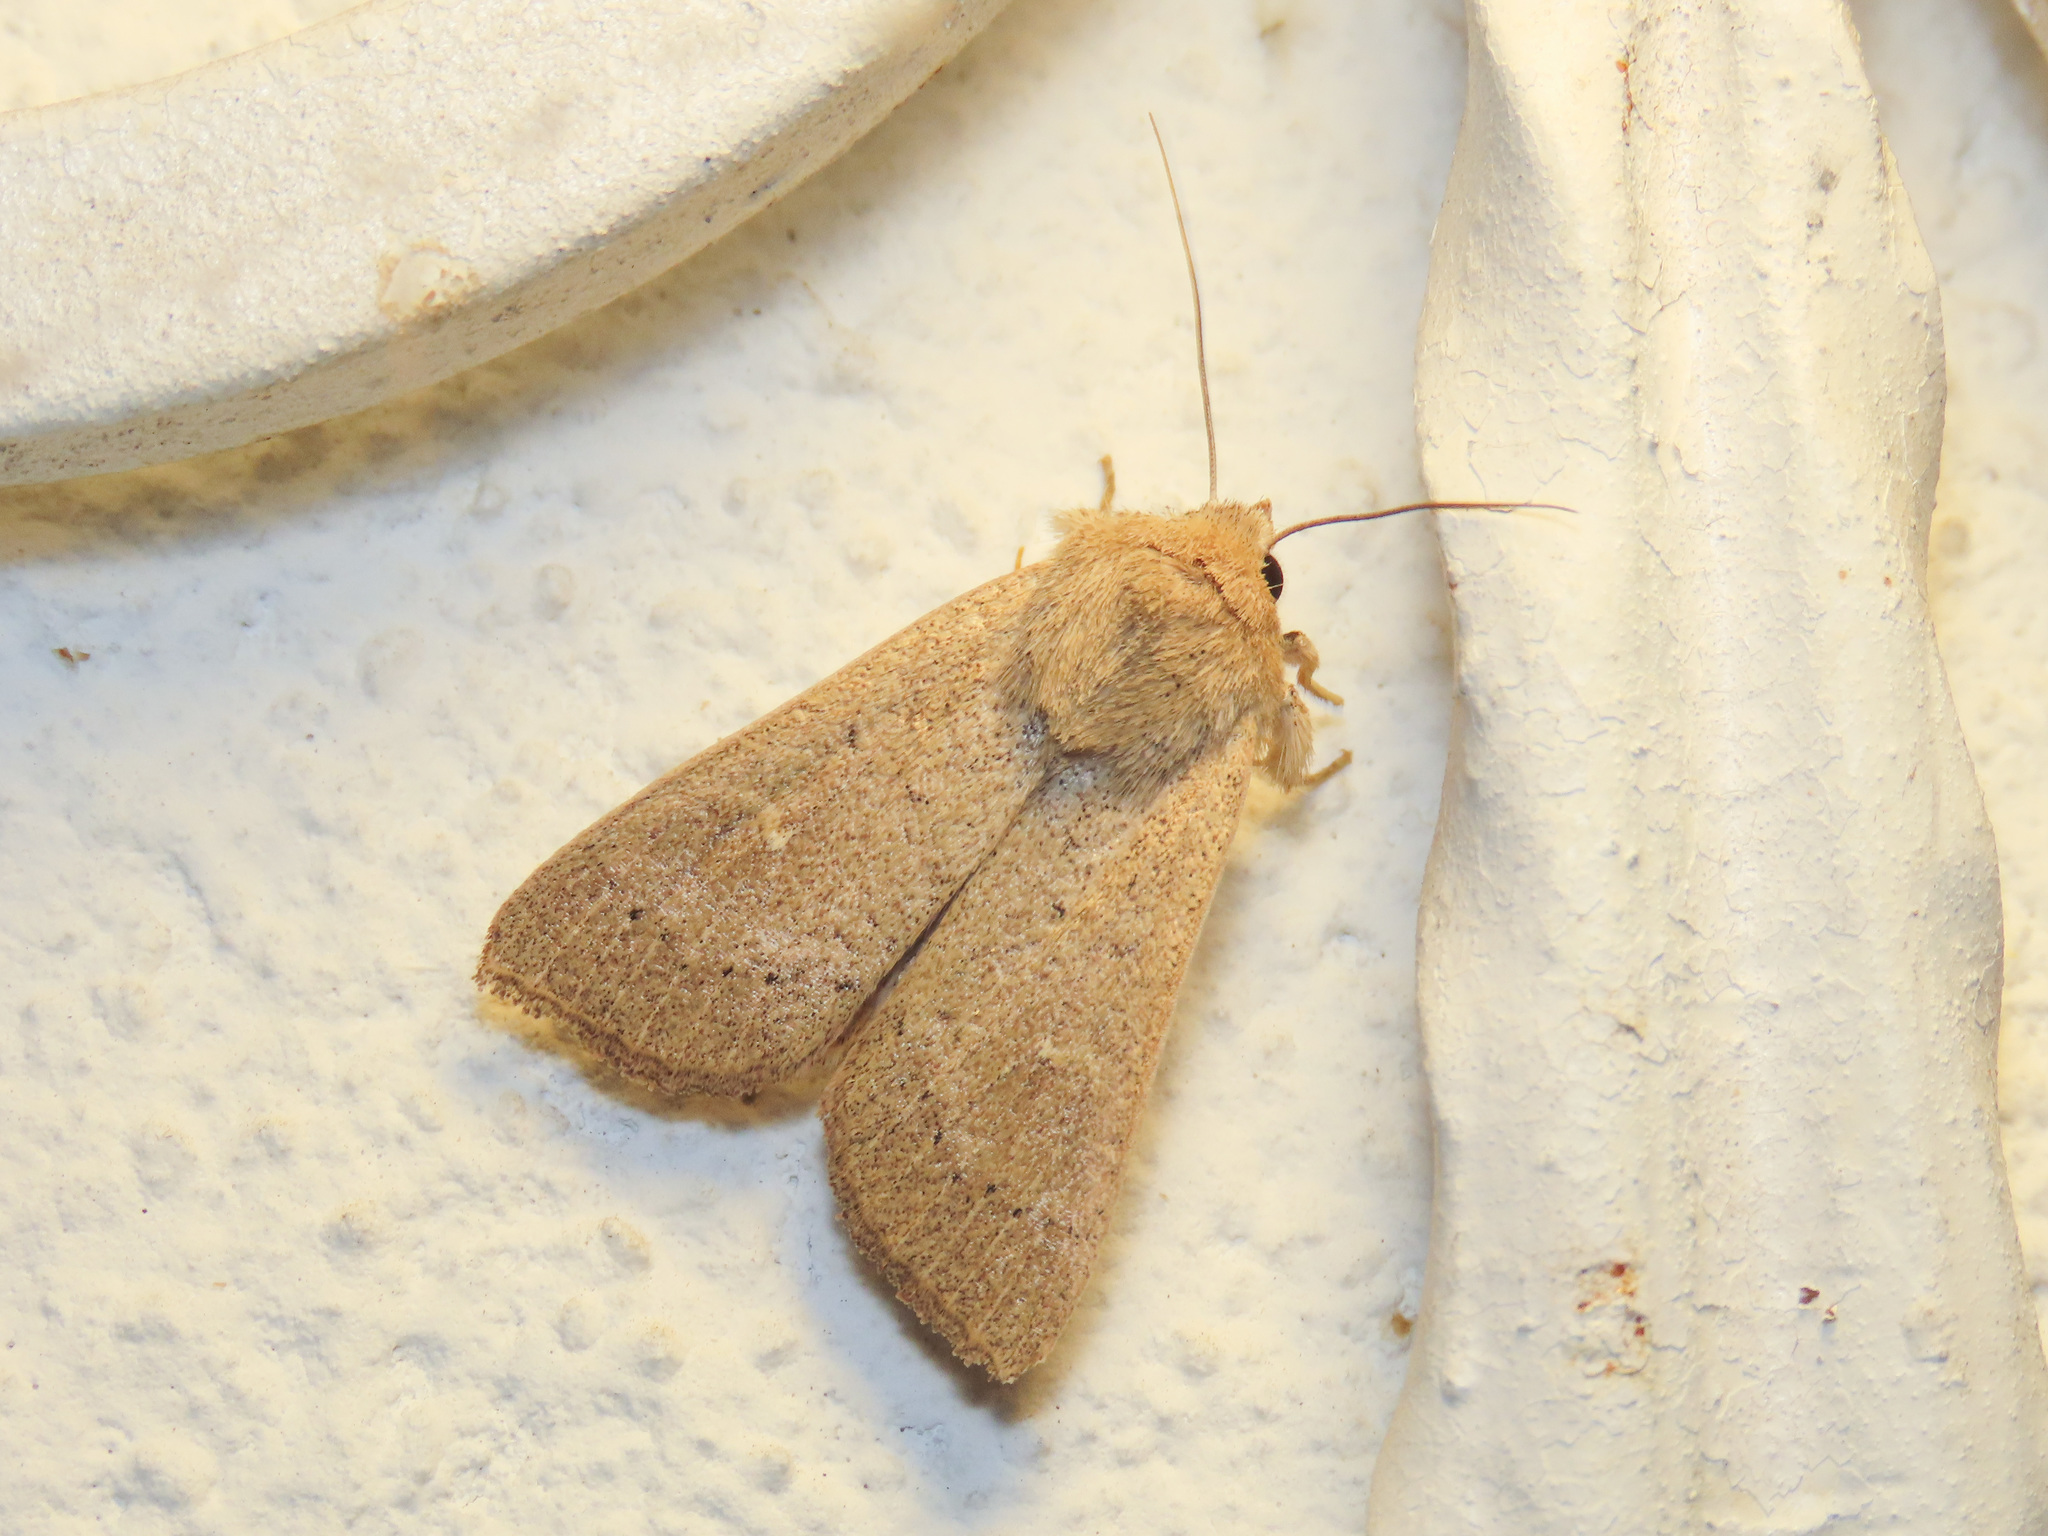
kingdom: Animalia
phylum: Arthropoda
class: Insecta
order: Lepidoptera
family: Noctuidae
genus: Mythimna
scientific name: Mythimna ferrago
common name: Clay
